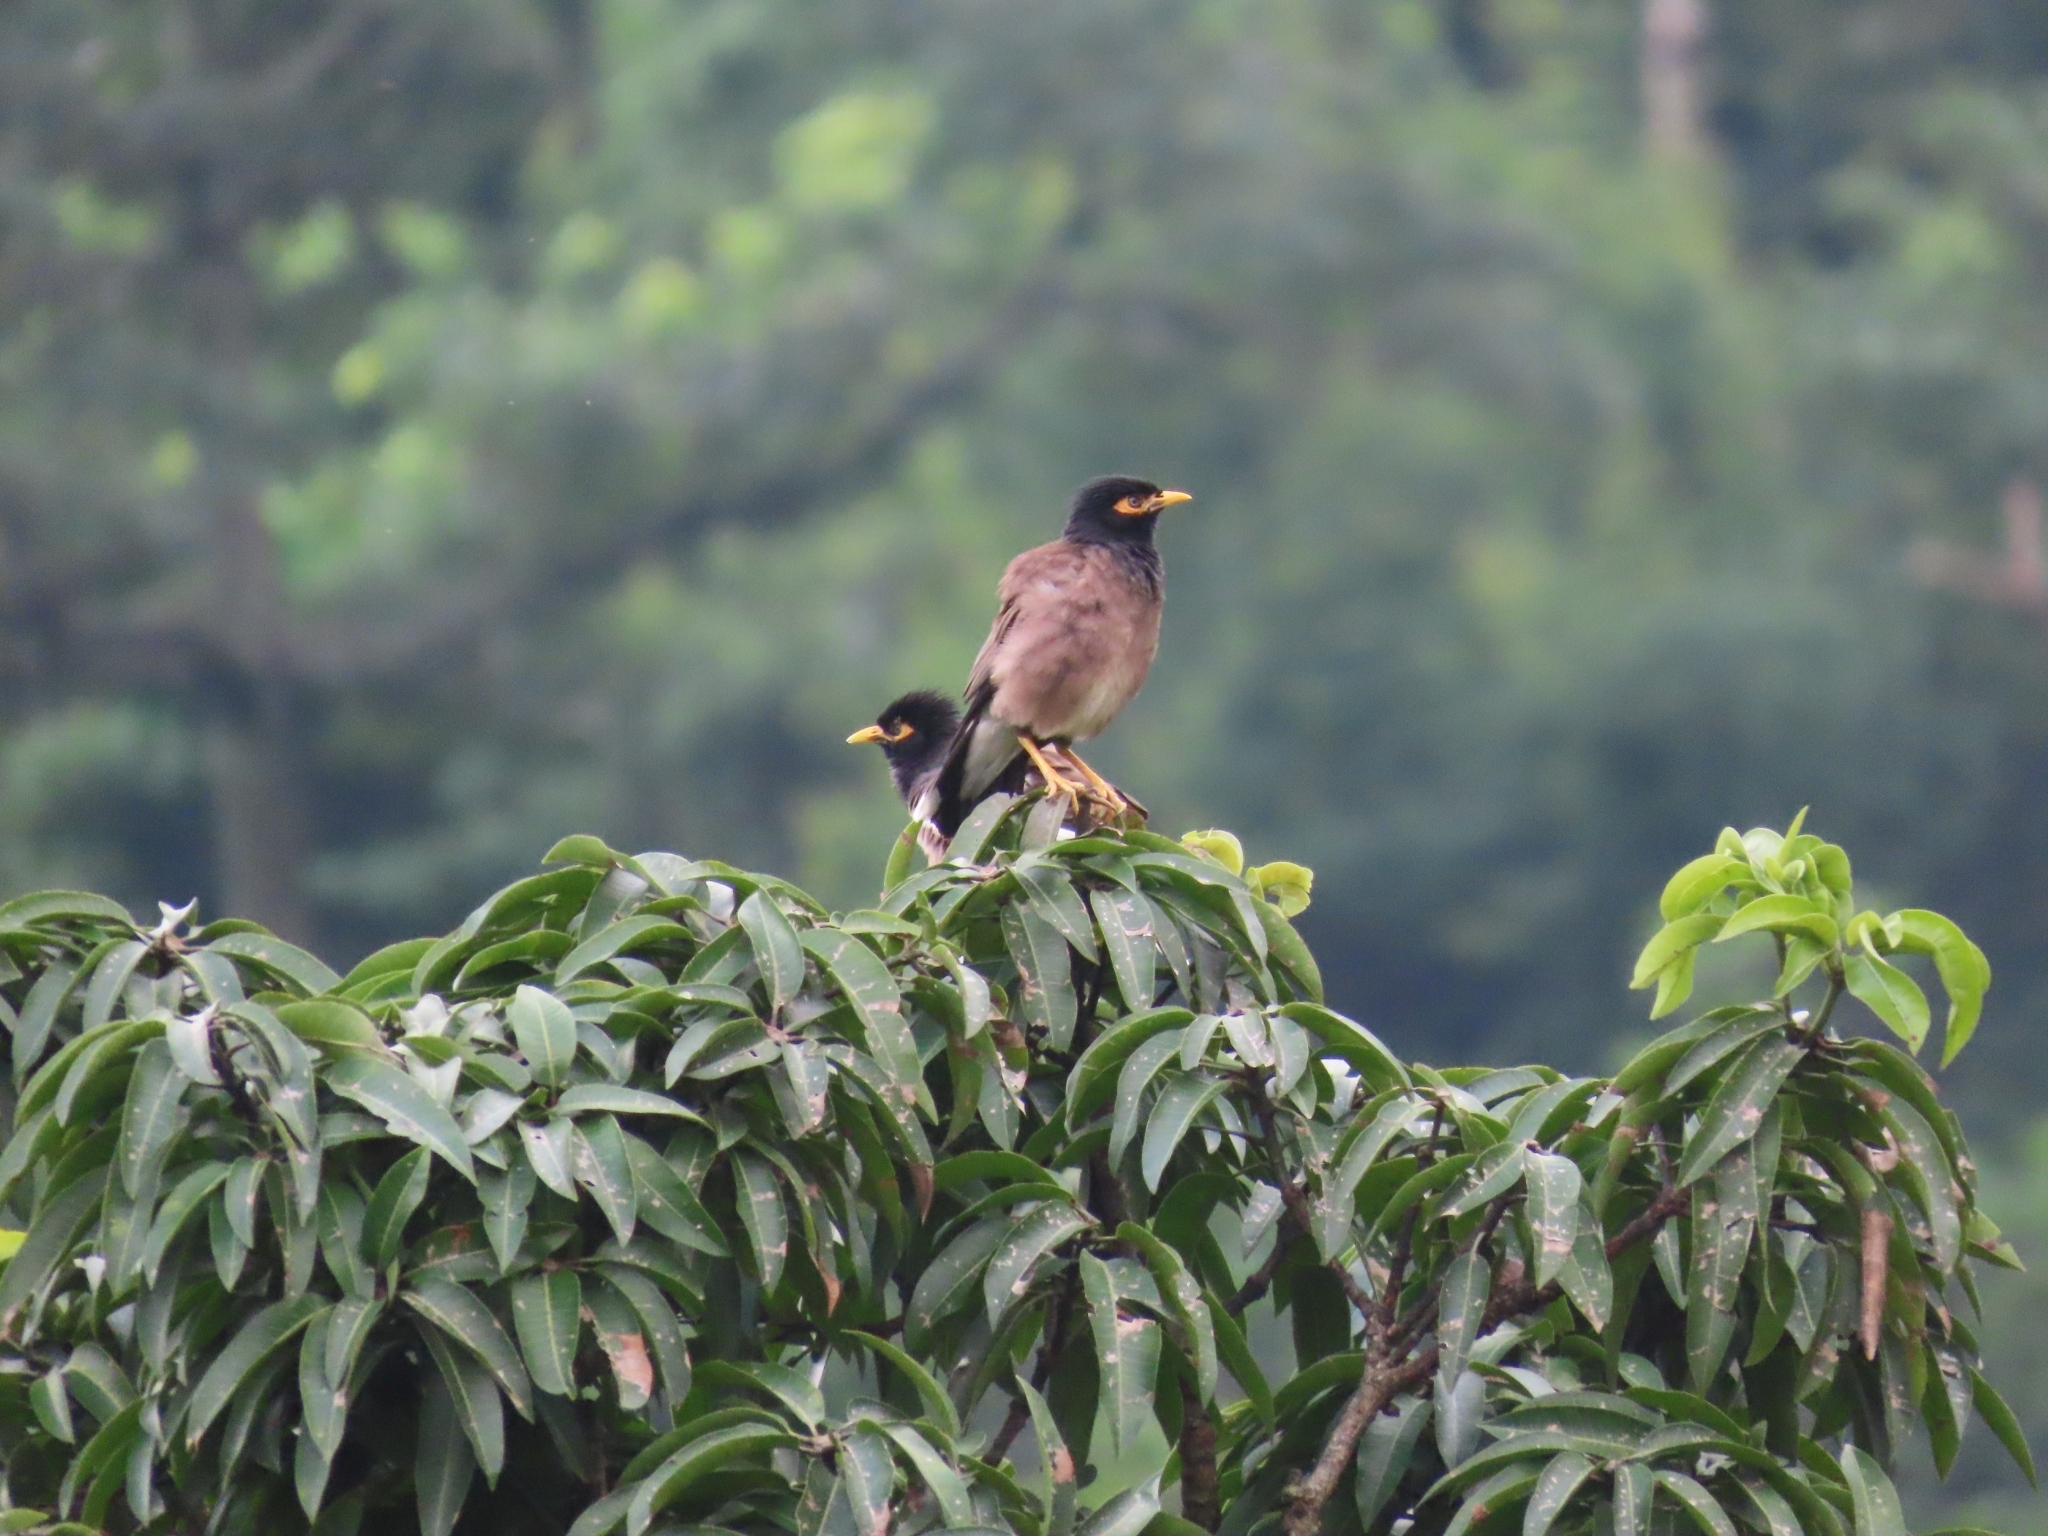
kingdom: Animalia
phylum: Chordata
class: Aves
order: Passeriformes
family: Sturnidae
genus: Acridotheres
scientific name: Acridotheres tristis
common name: Common myna
